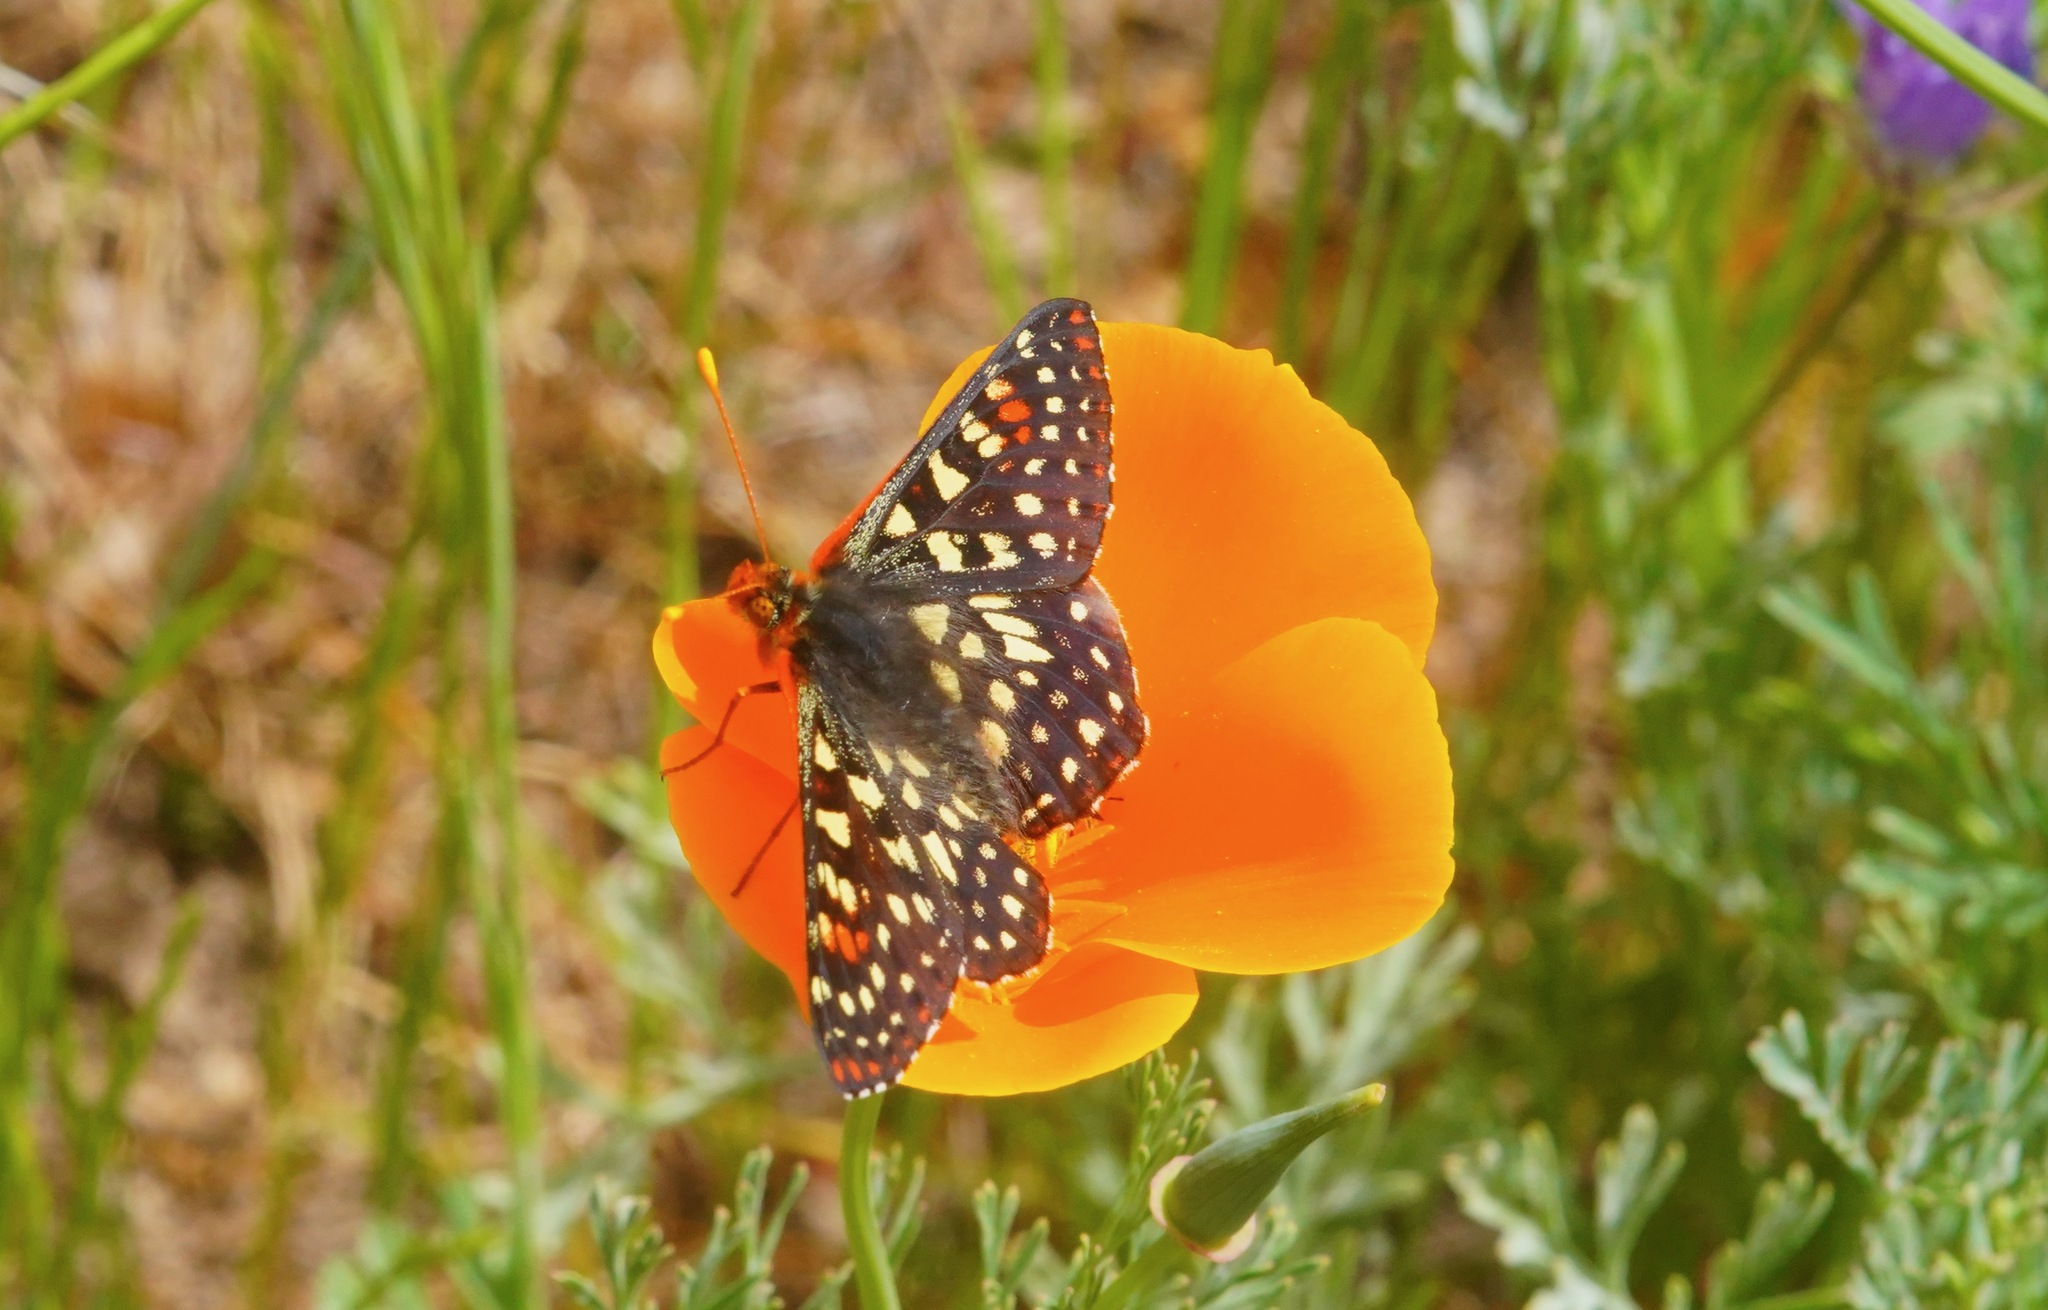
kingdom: Animalia
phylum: Arthropoda
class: Insecta
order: Lepidoptera
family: Nymphalidae
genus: Occidryas
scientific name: Occidryas chalcedona
